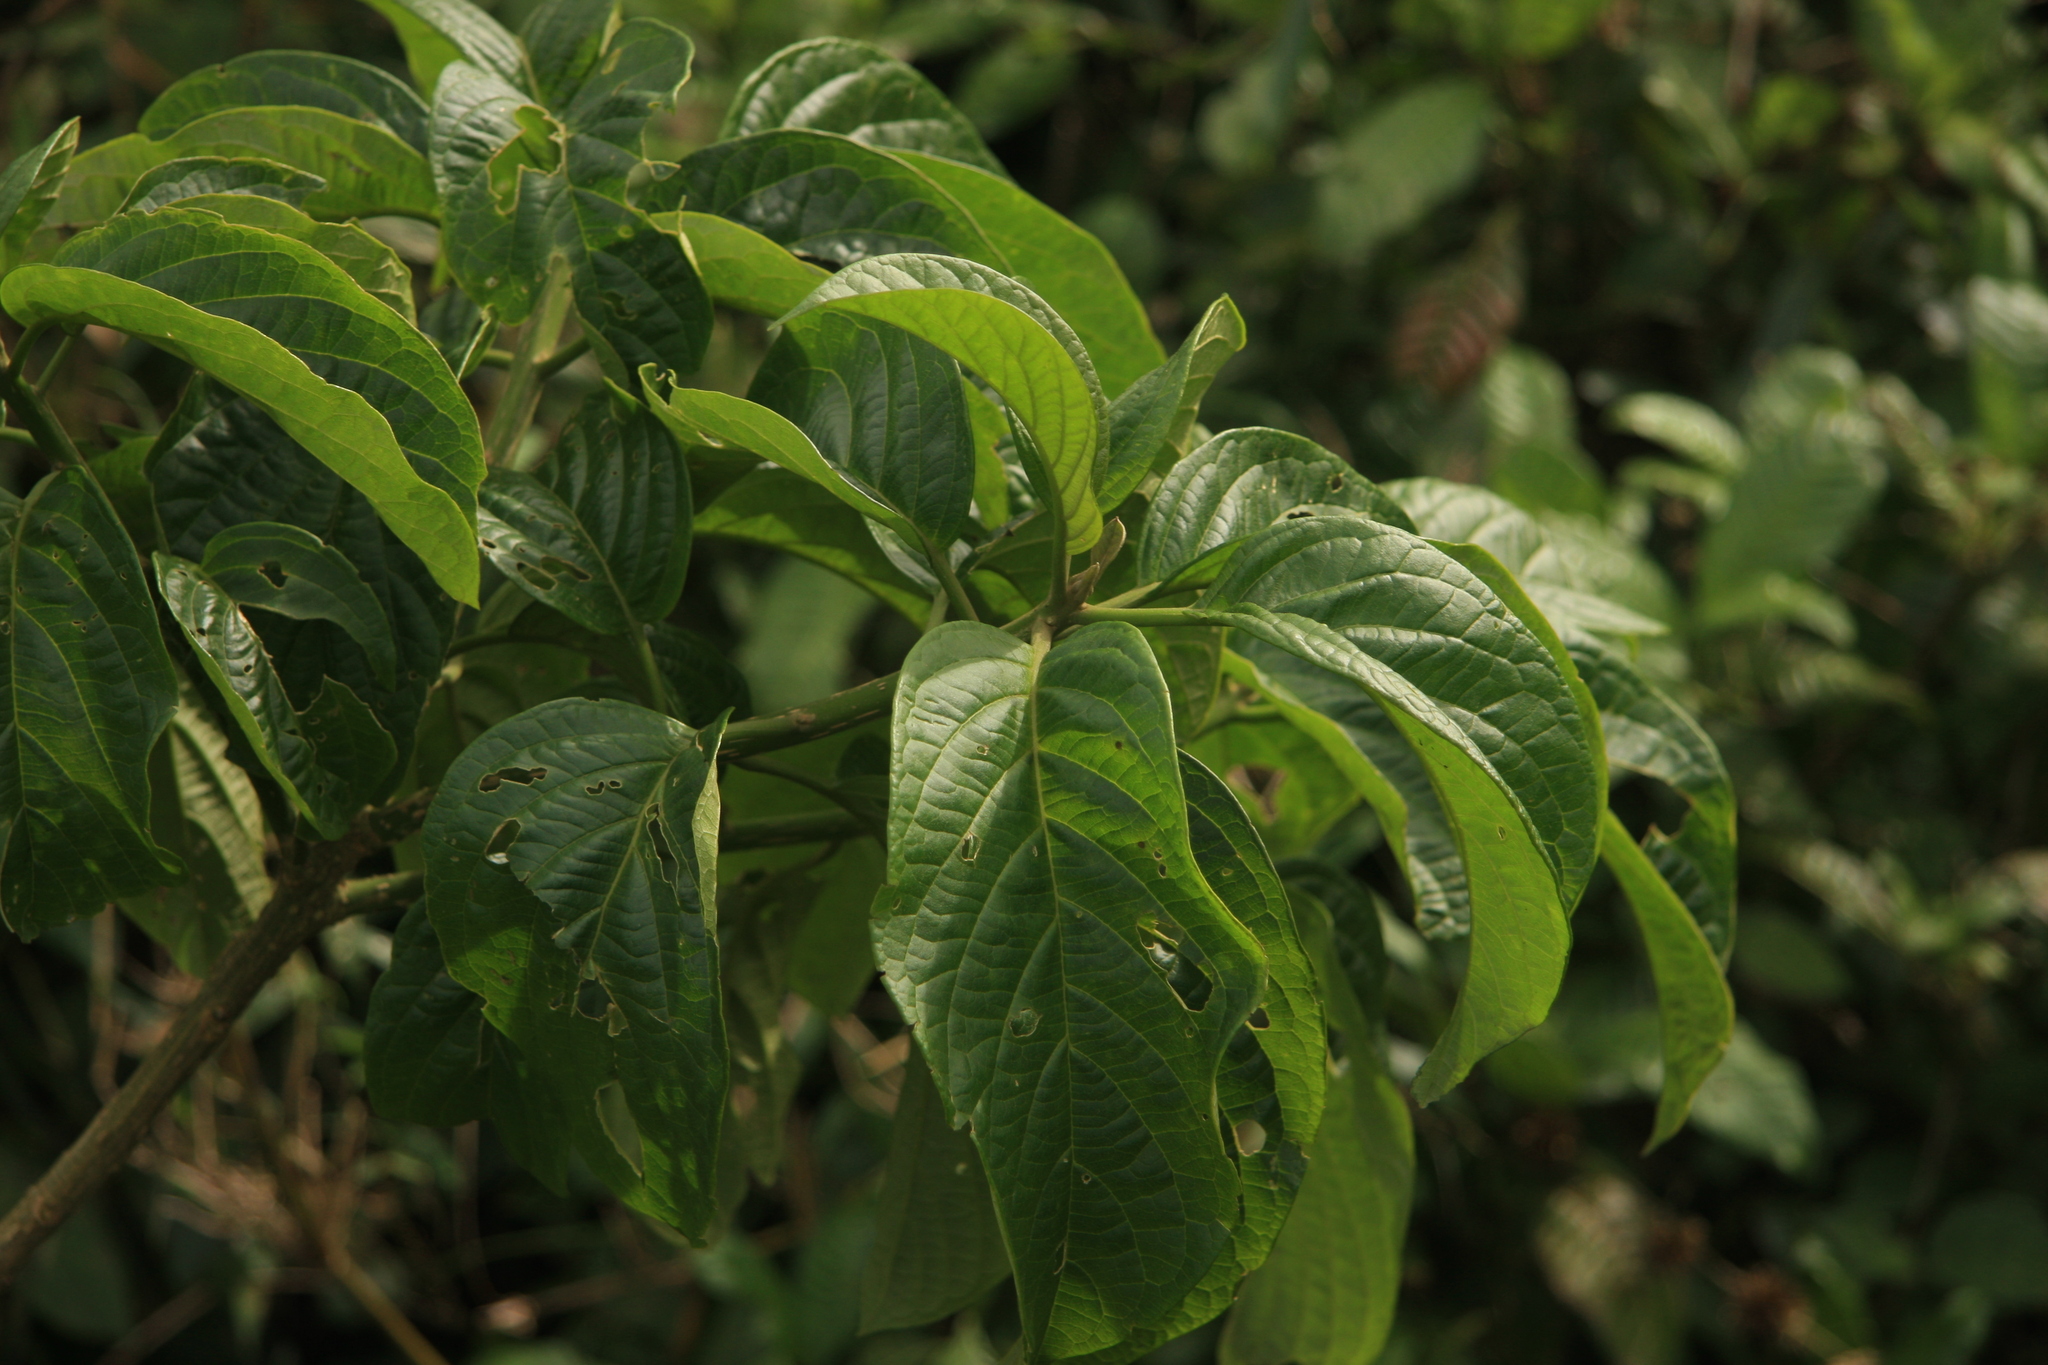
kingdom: Plantae
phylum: Tracheophyta
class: Magnoliopsida
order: Icacinales
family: Icacinaceae
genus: Nothapodytes
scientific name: Nothapodytes nimmoniana
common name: Nothapodytes
